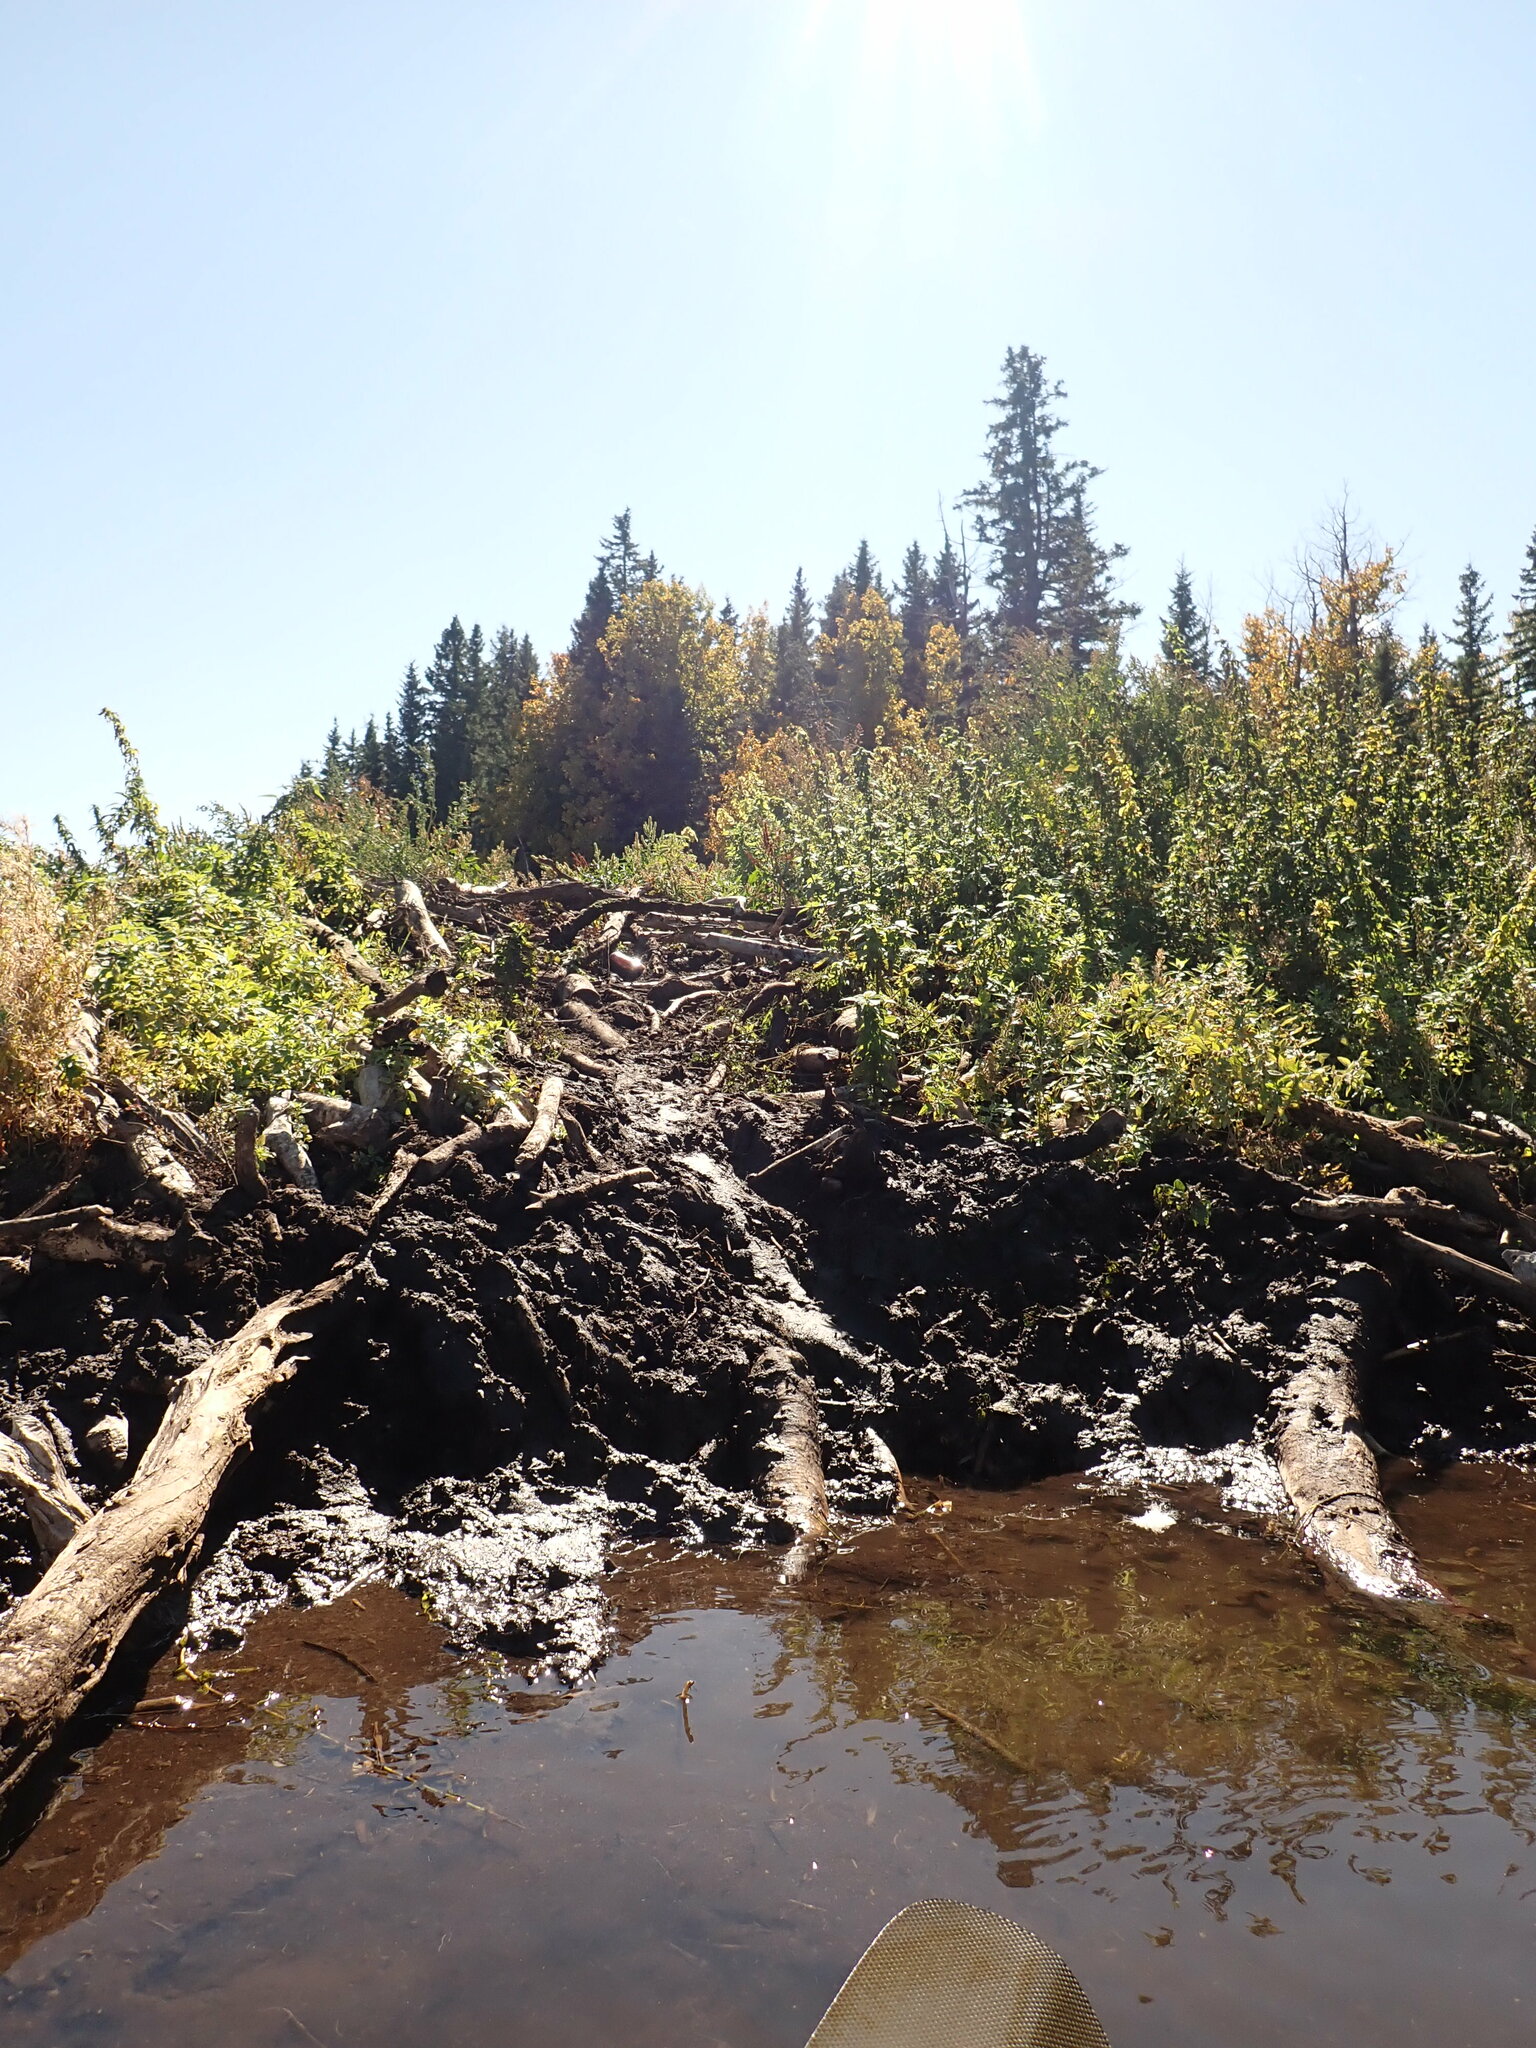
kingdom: Animalia
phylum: Chordata
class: Mammalia
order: Rodentia
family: Castoridae
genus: Castor
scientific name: Castor canadensis
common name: American beaver
